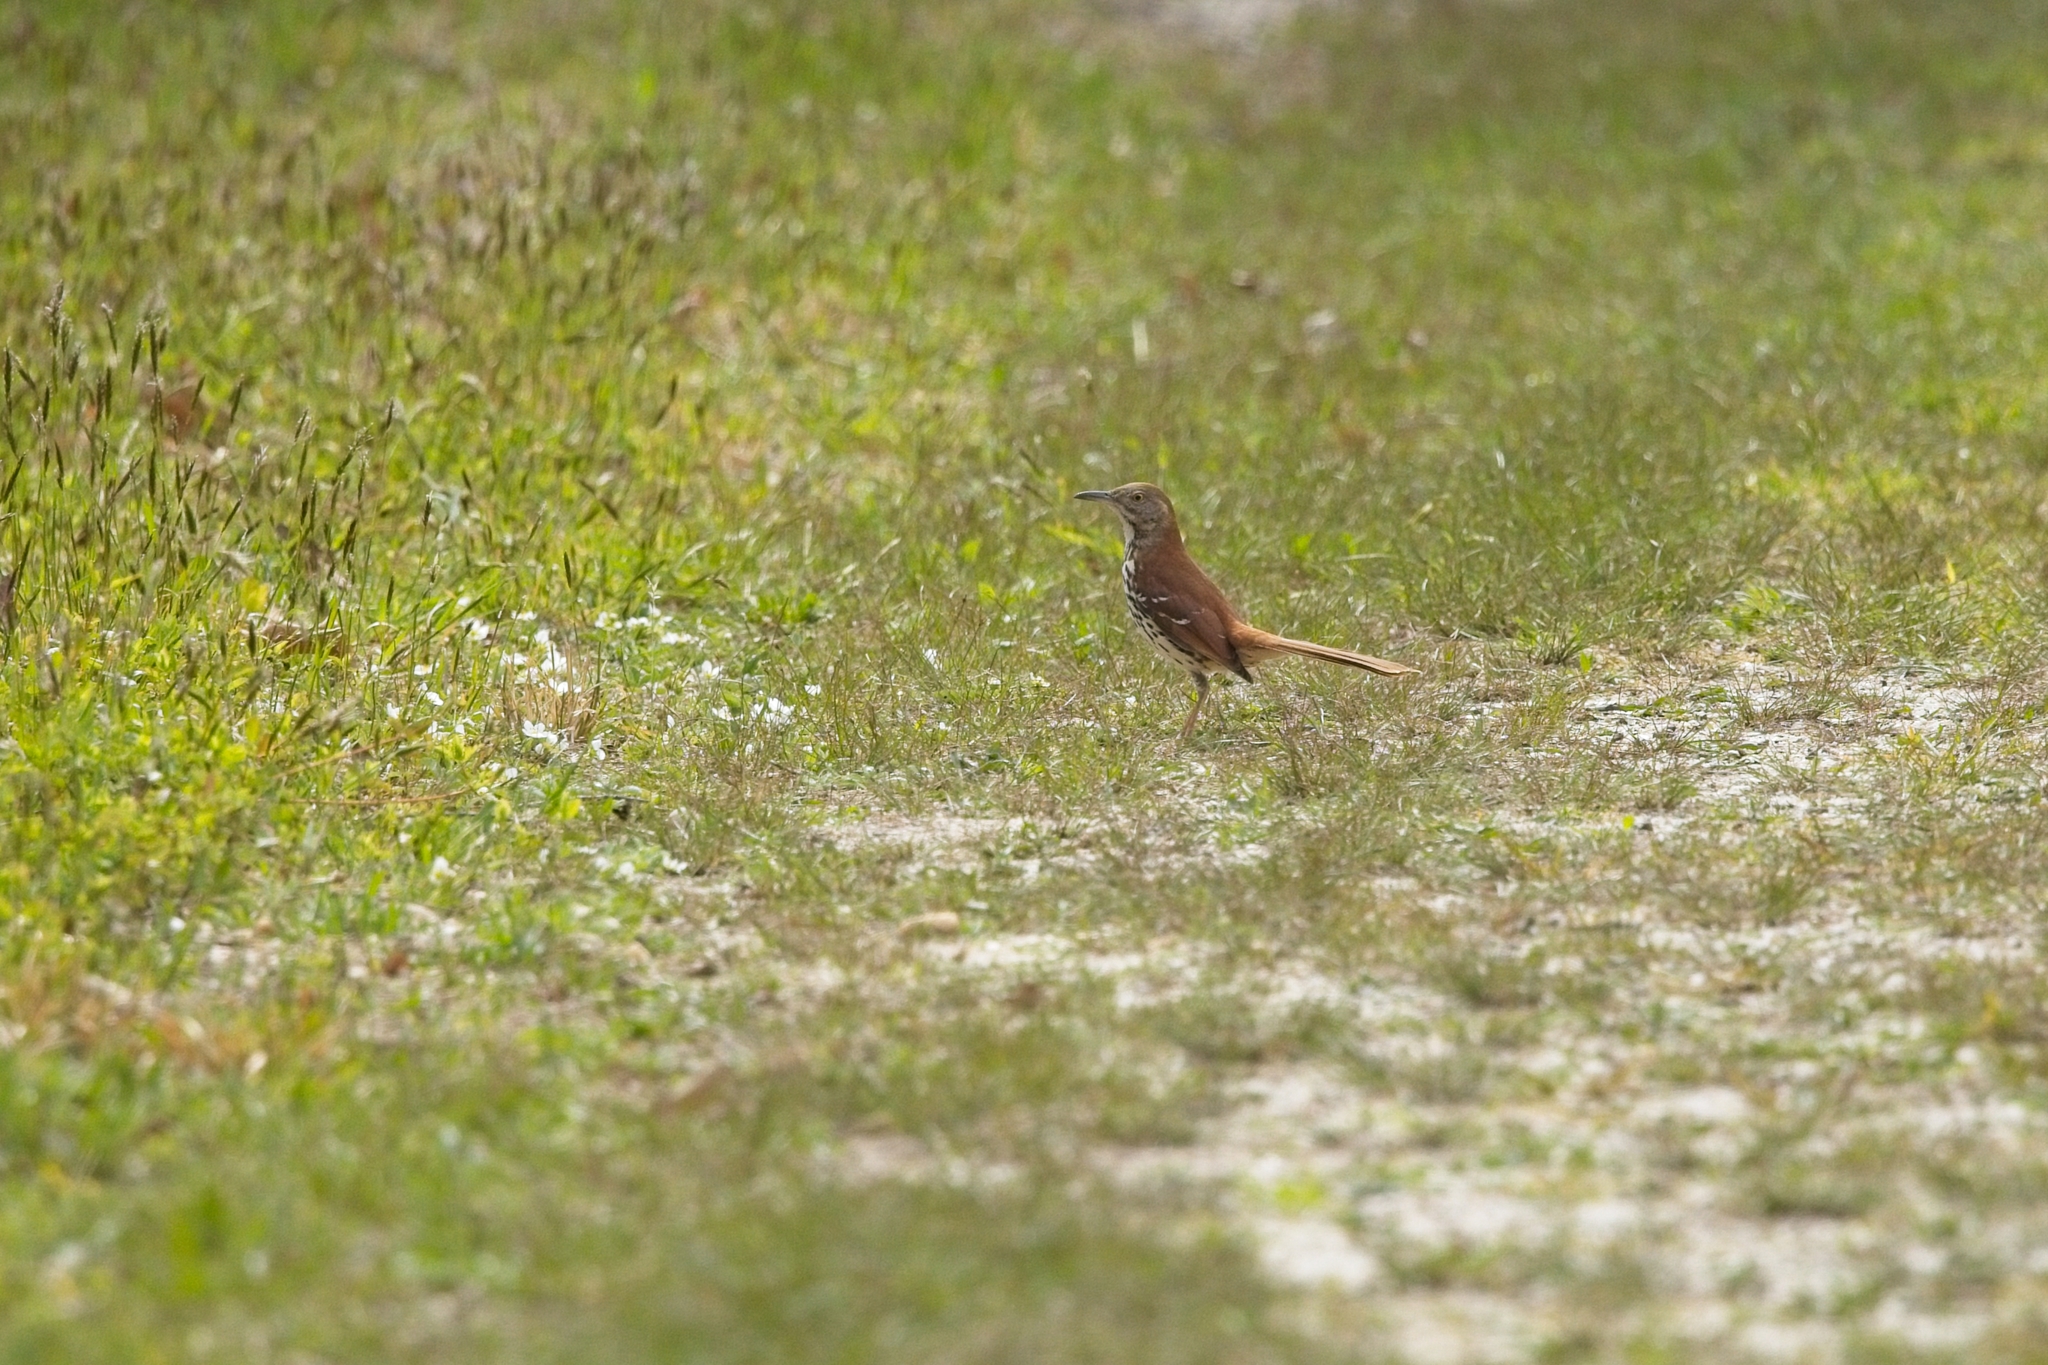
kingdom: Animalia
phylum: Chordata
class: Aves
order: Passeriformes
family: Mimidae
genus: Toxostoma
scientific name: Toxostoma rufum
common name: Brown thrasher
